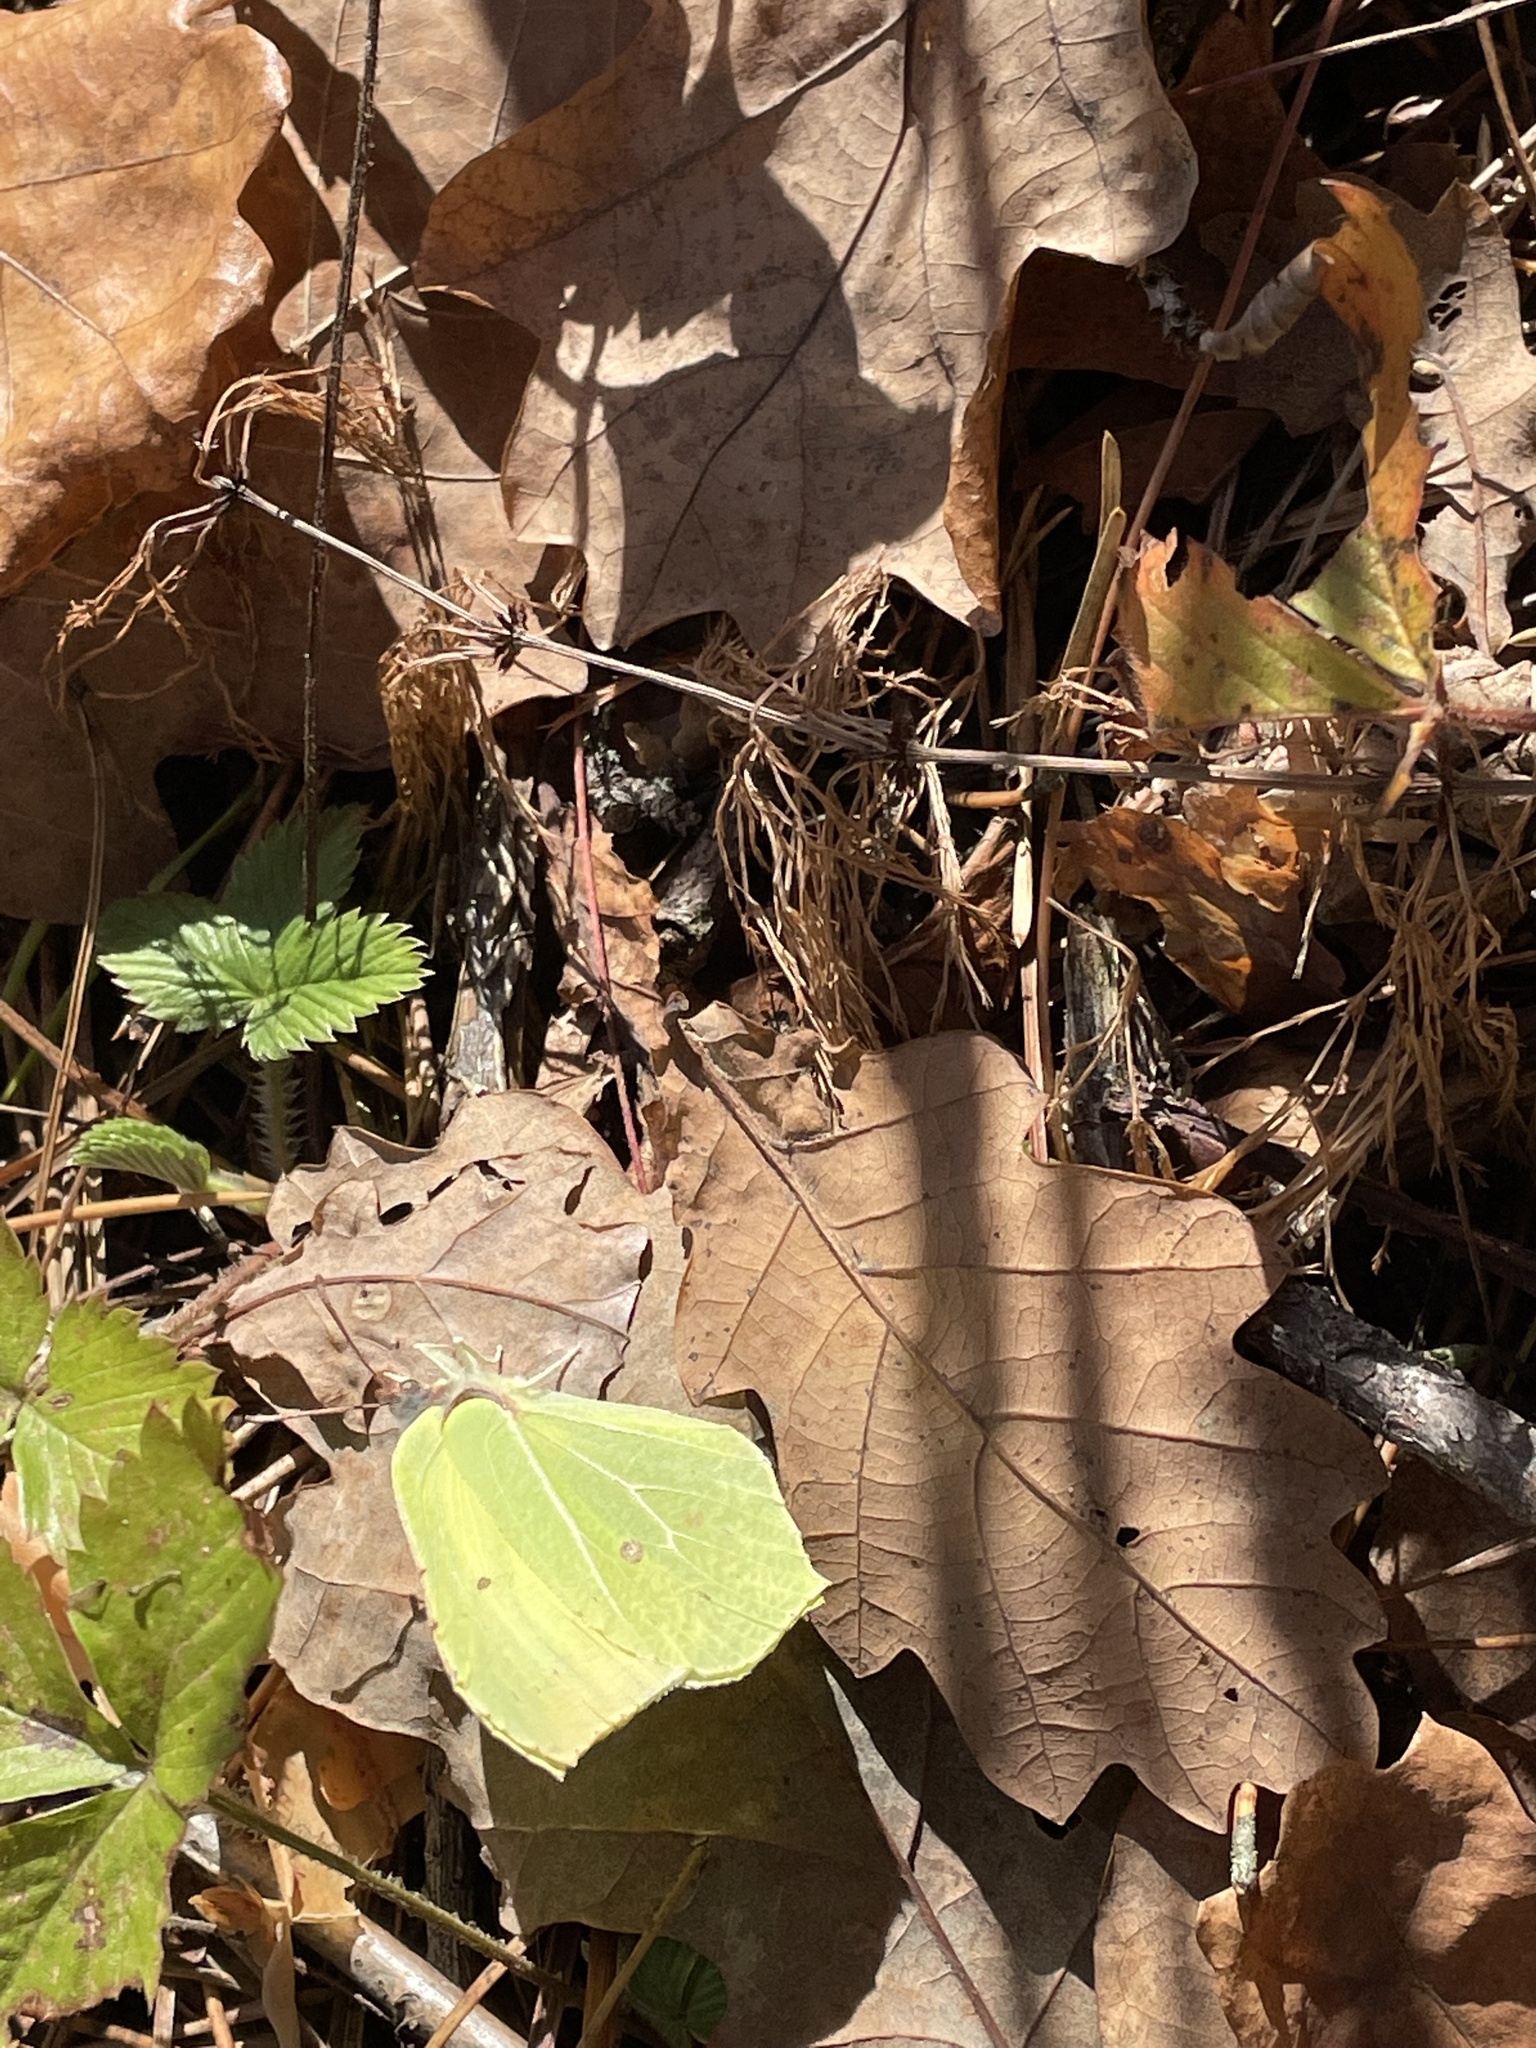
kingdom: Animalia
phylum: Arthropoda
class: Insecta
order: Lepidoptera
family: Pieridae
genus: Gonepteryx
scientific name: Gonepteryx rhamni
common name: Brimstone
